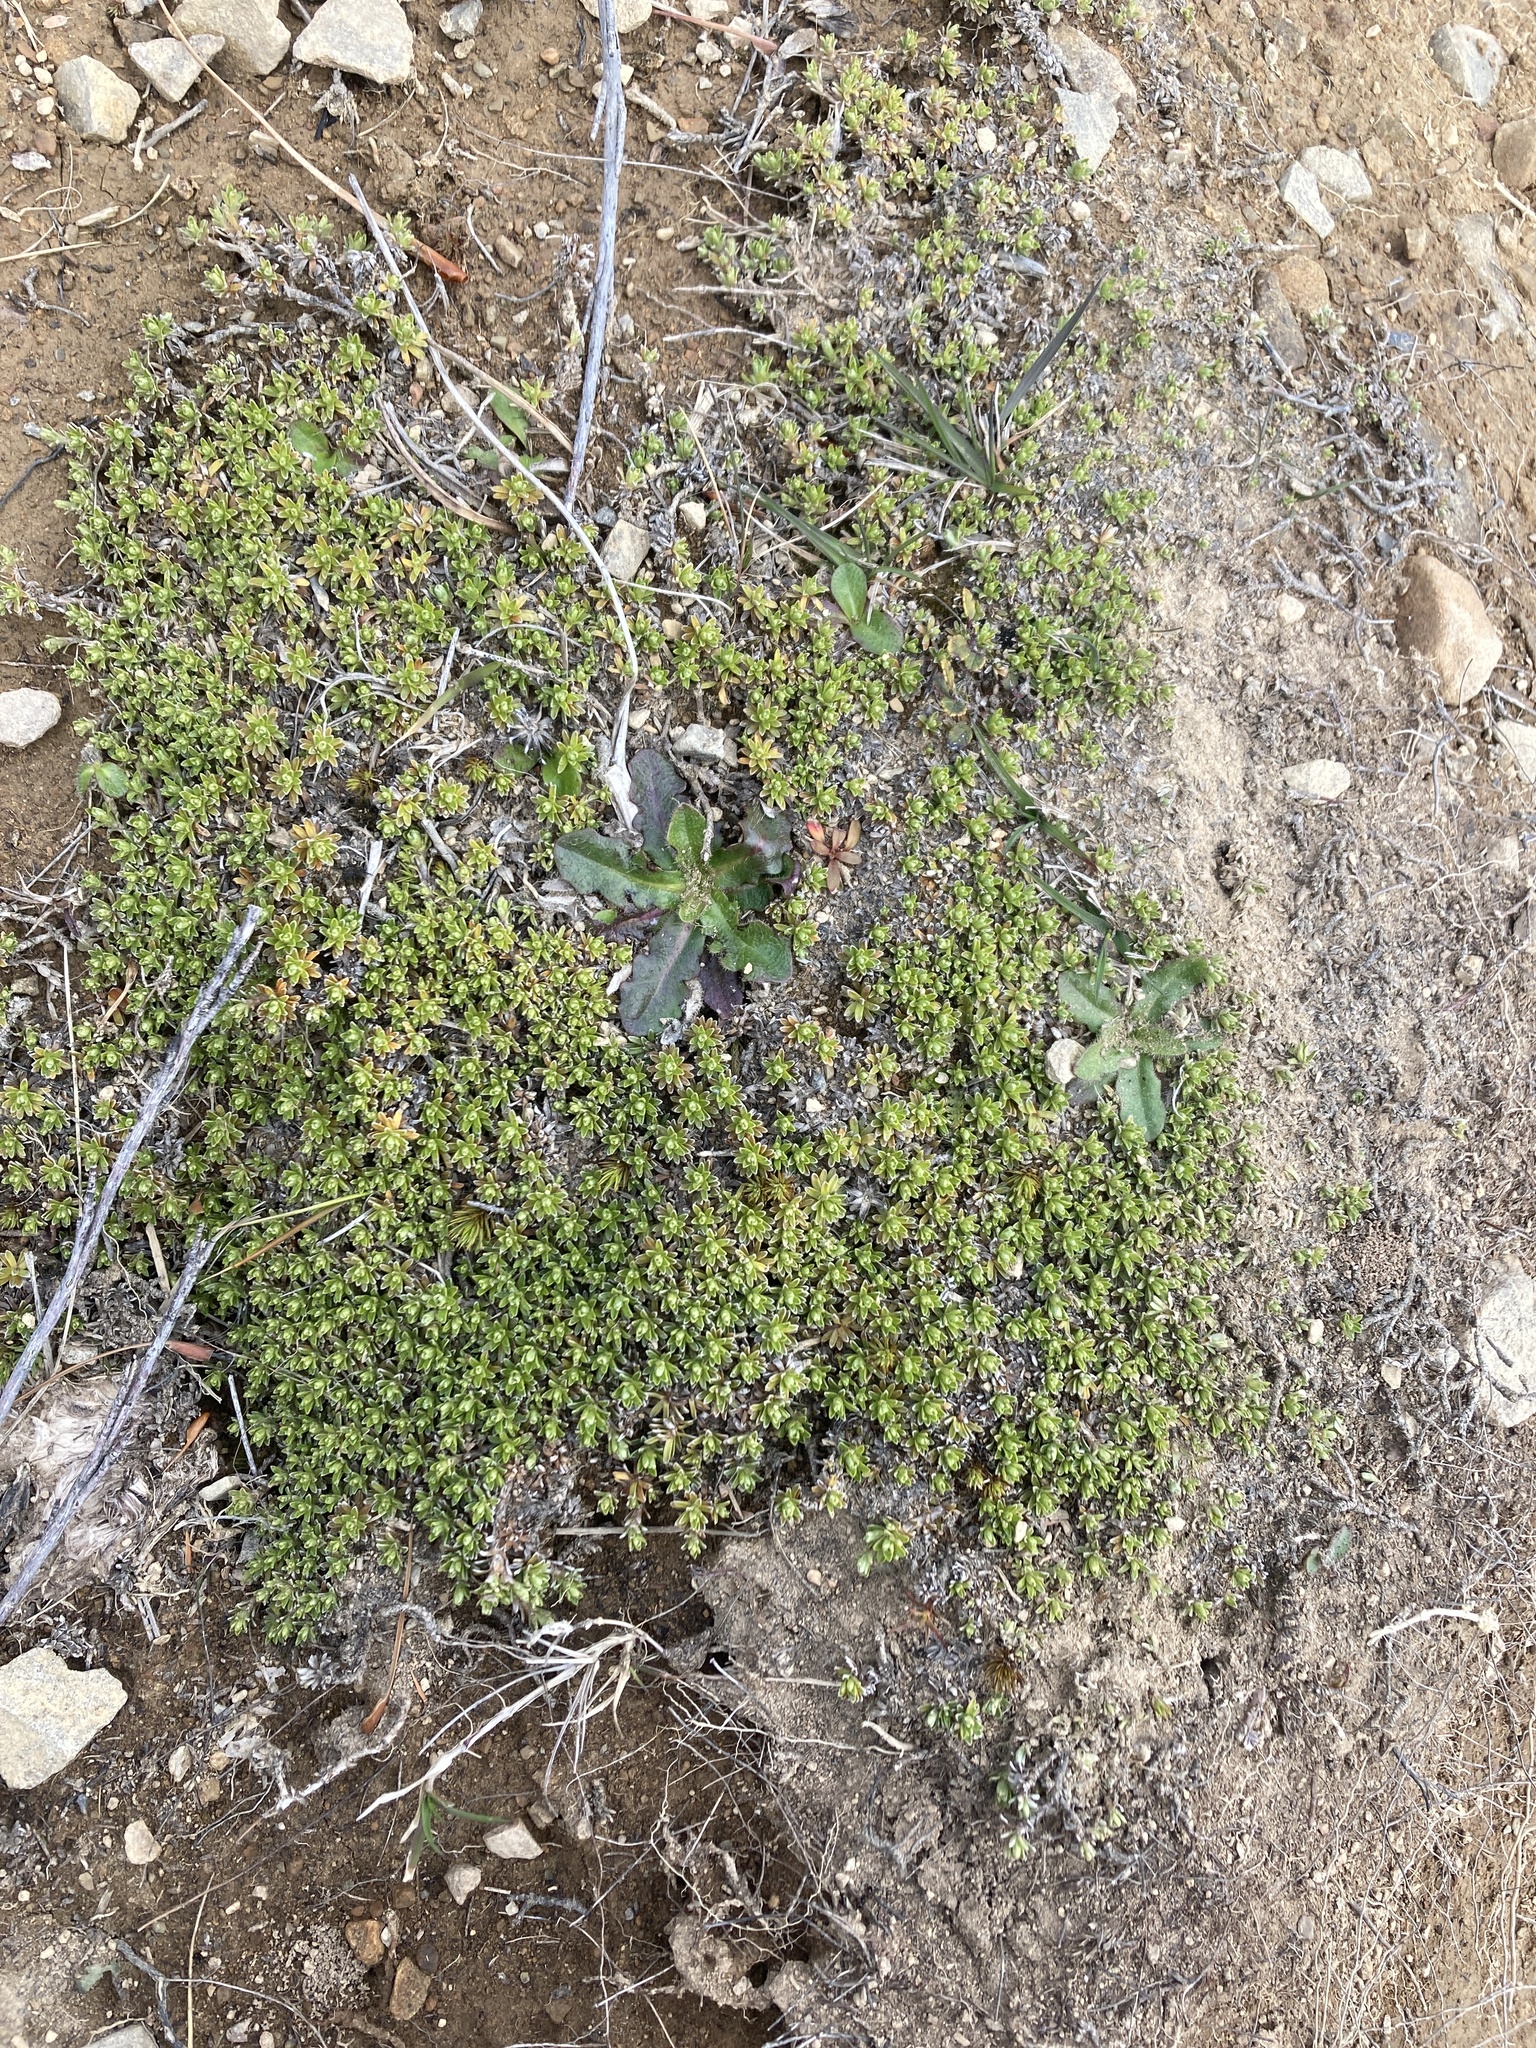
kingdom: Plantae
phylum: Tracheophyta
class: Magnoliopsida
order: Asterales
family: Asteraceae
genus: Raoulia
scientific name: Raoulia subsericea
